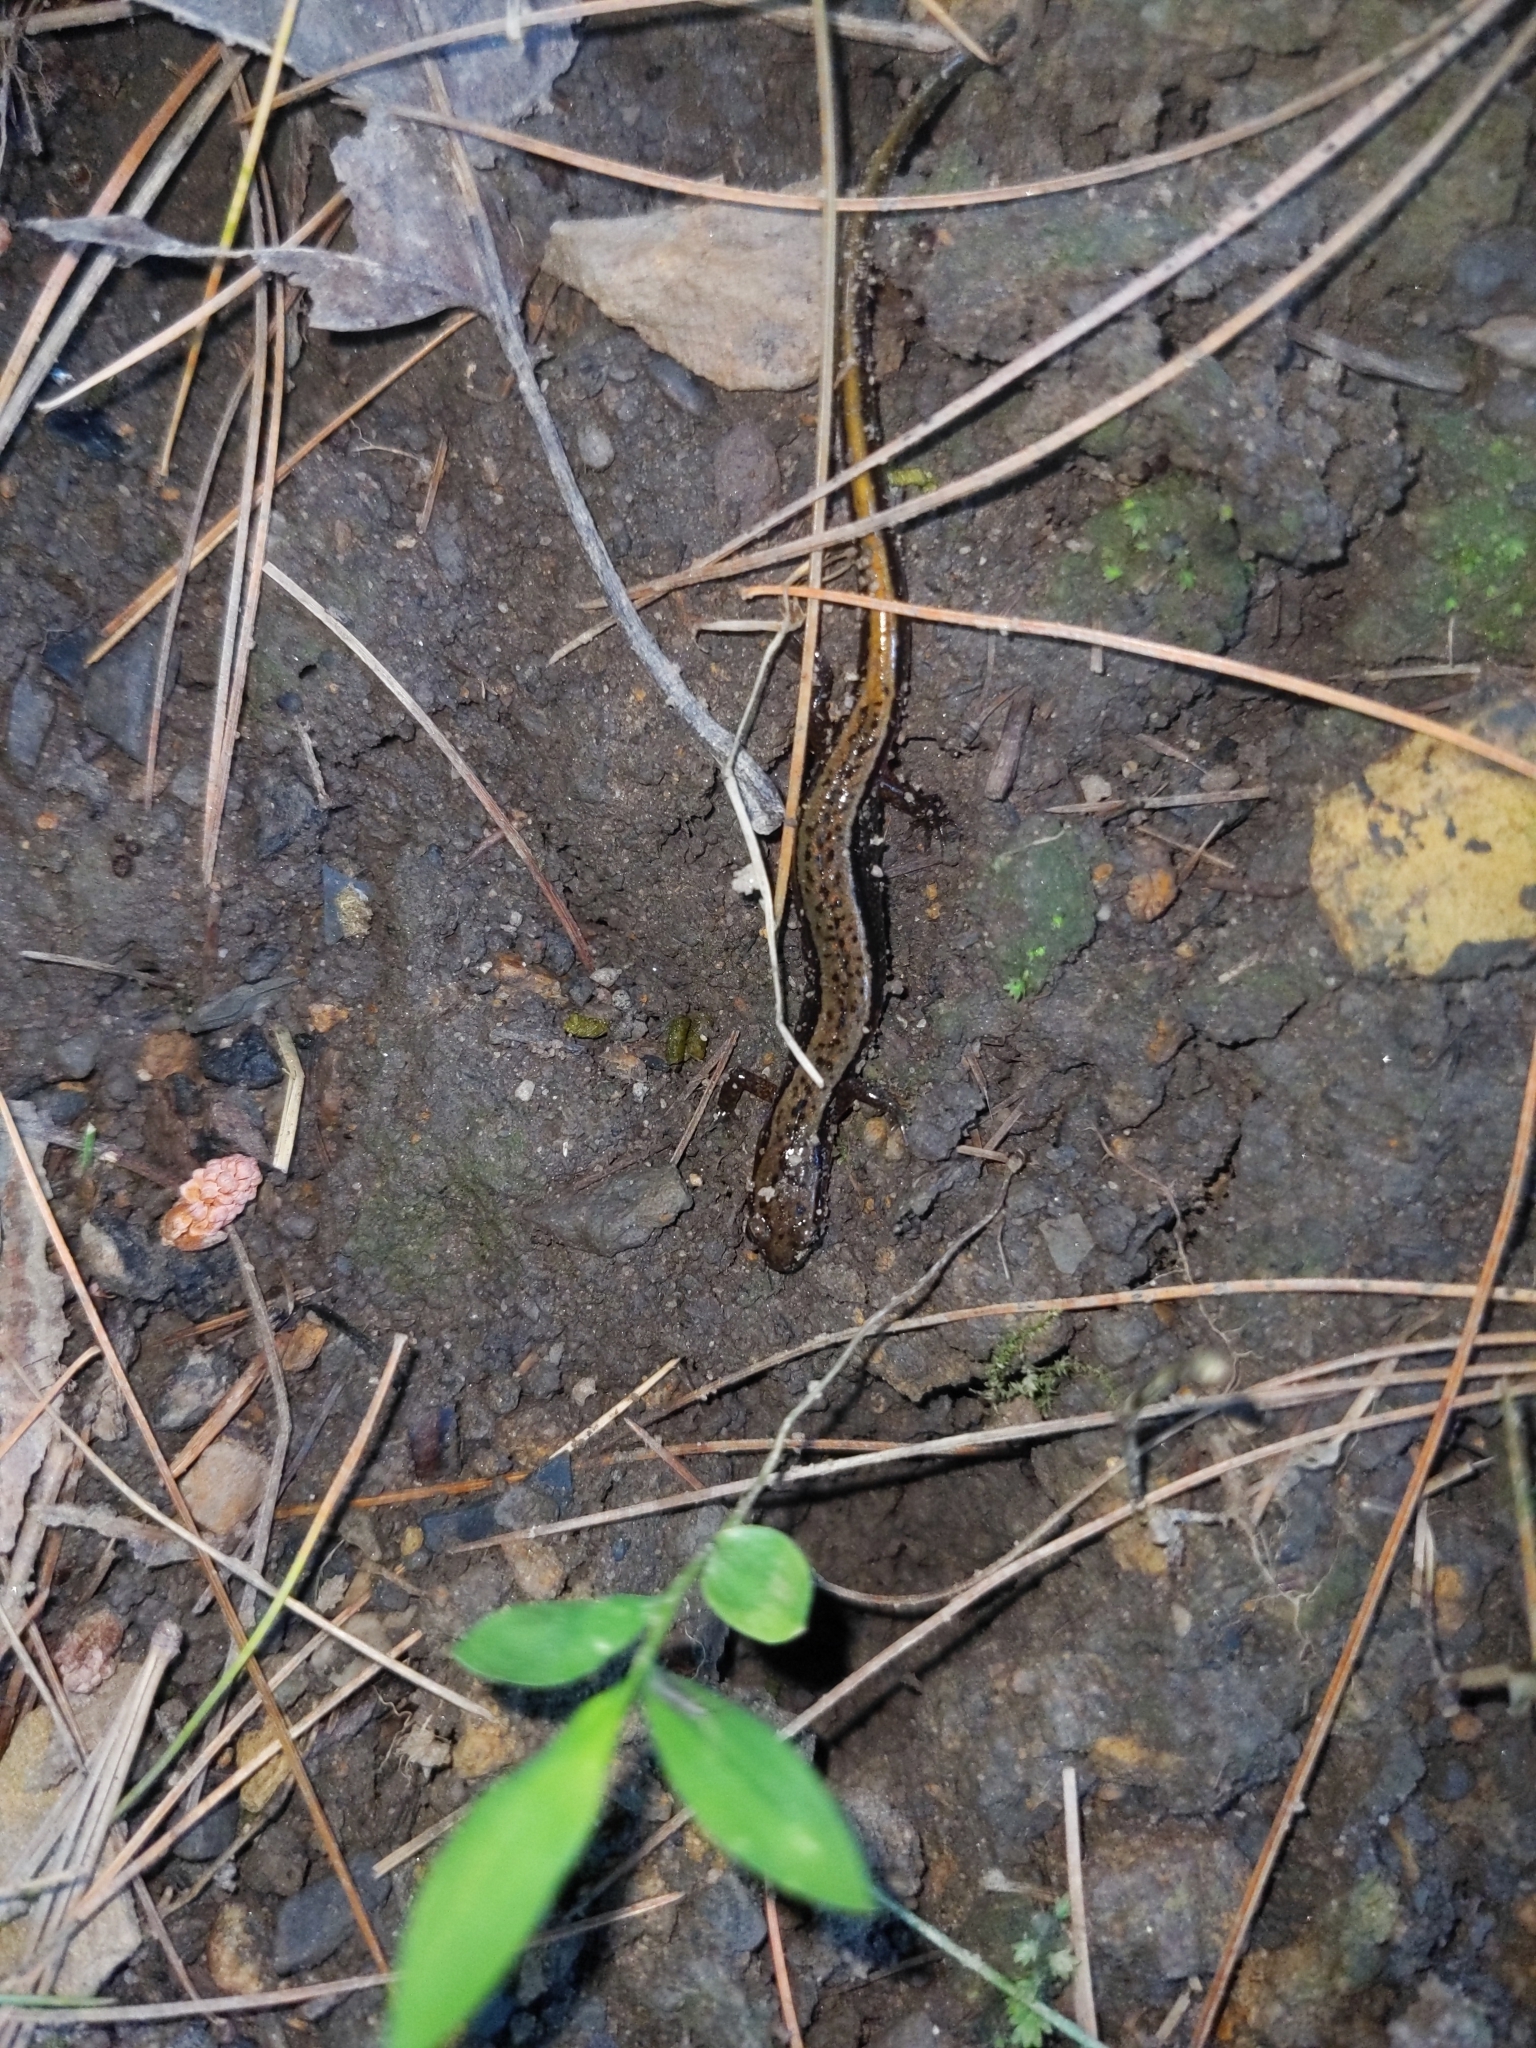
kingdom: Animalia
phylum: Chordata
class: Amphibia
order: Caudata
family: Plethodontidae
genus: Eurycea
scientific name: Eurycea bislineata
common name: Northern two-lined salamander
